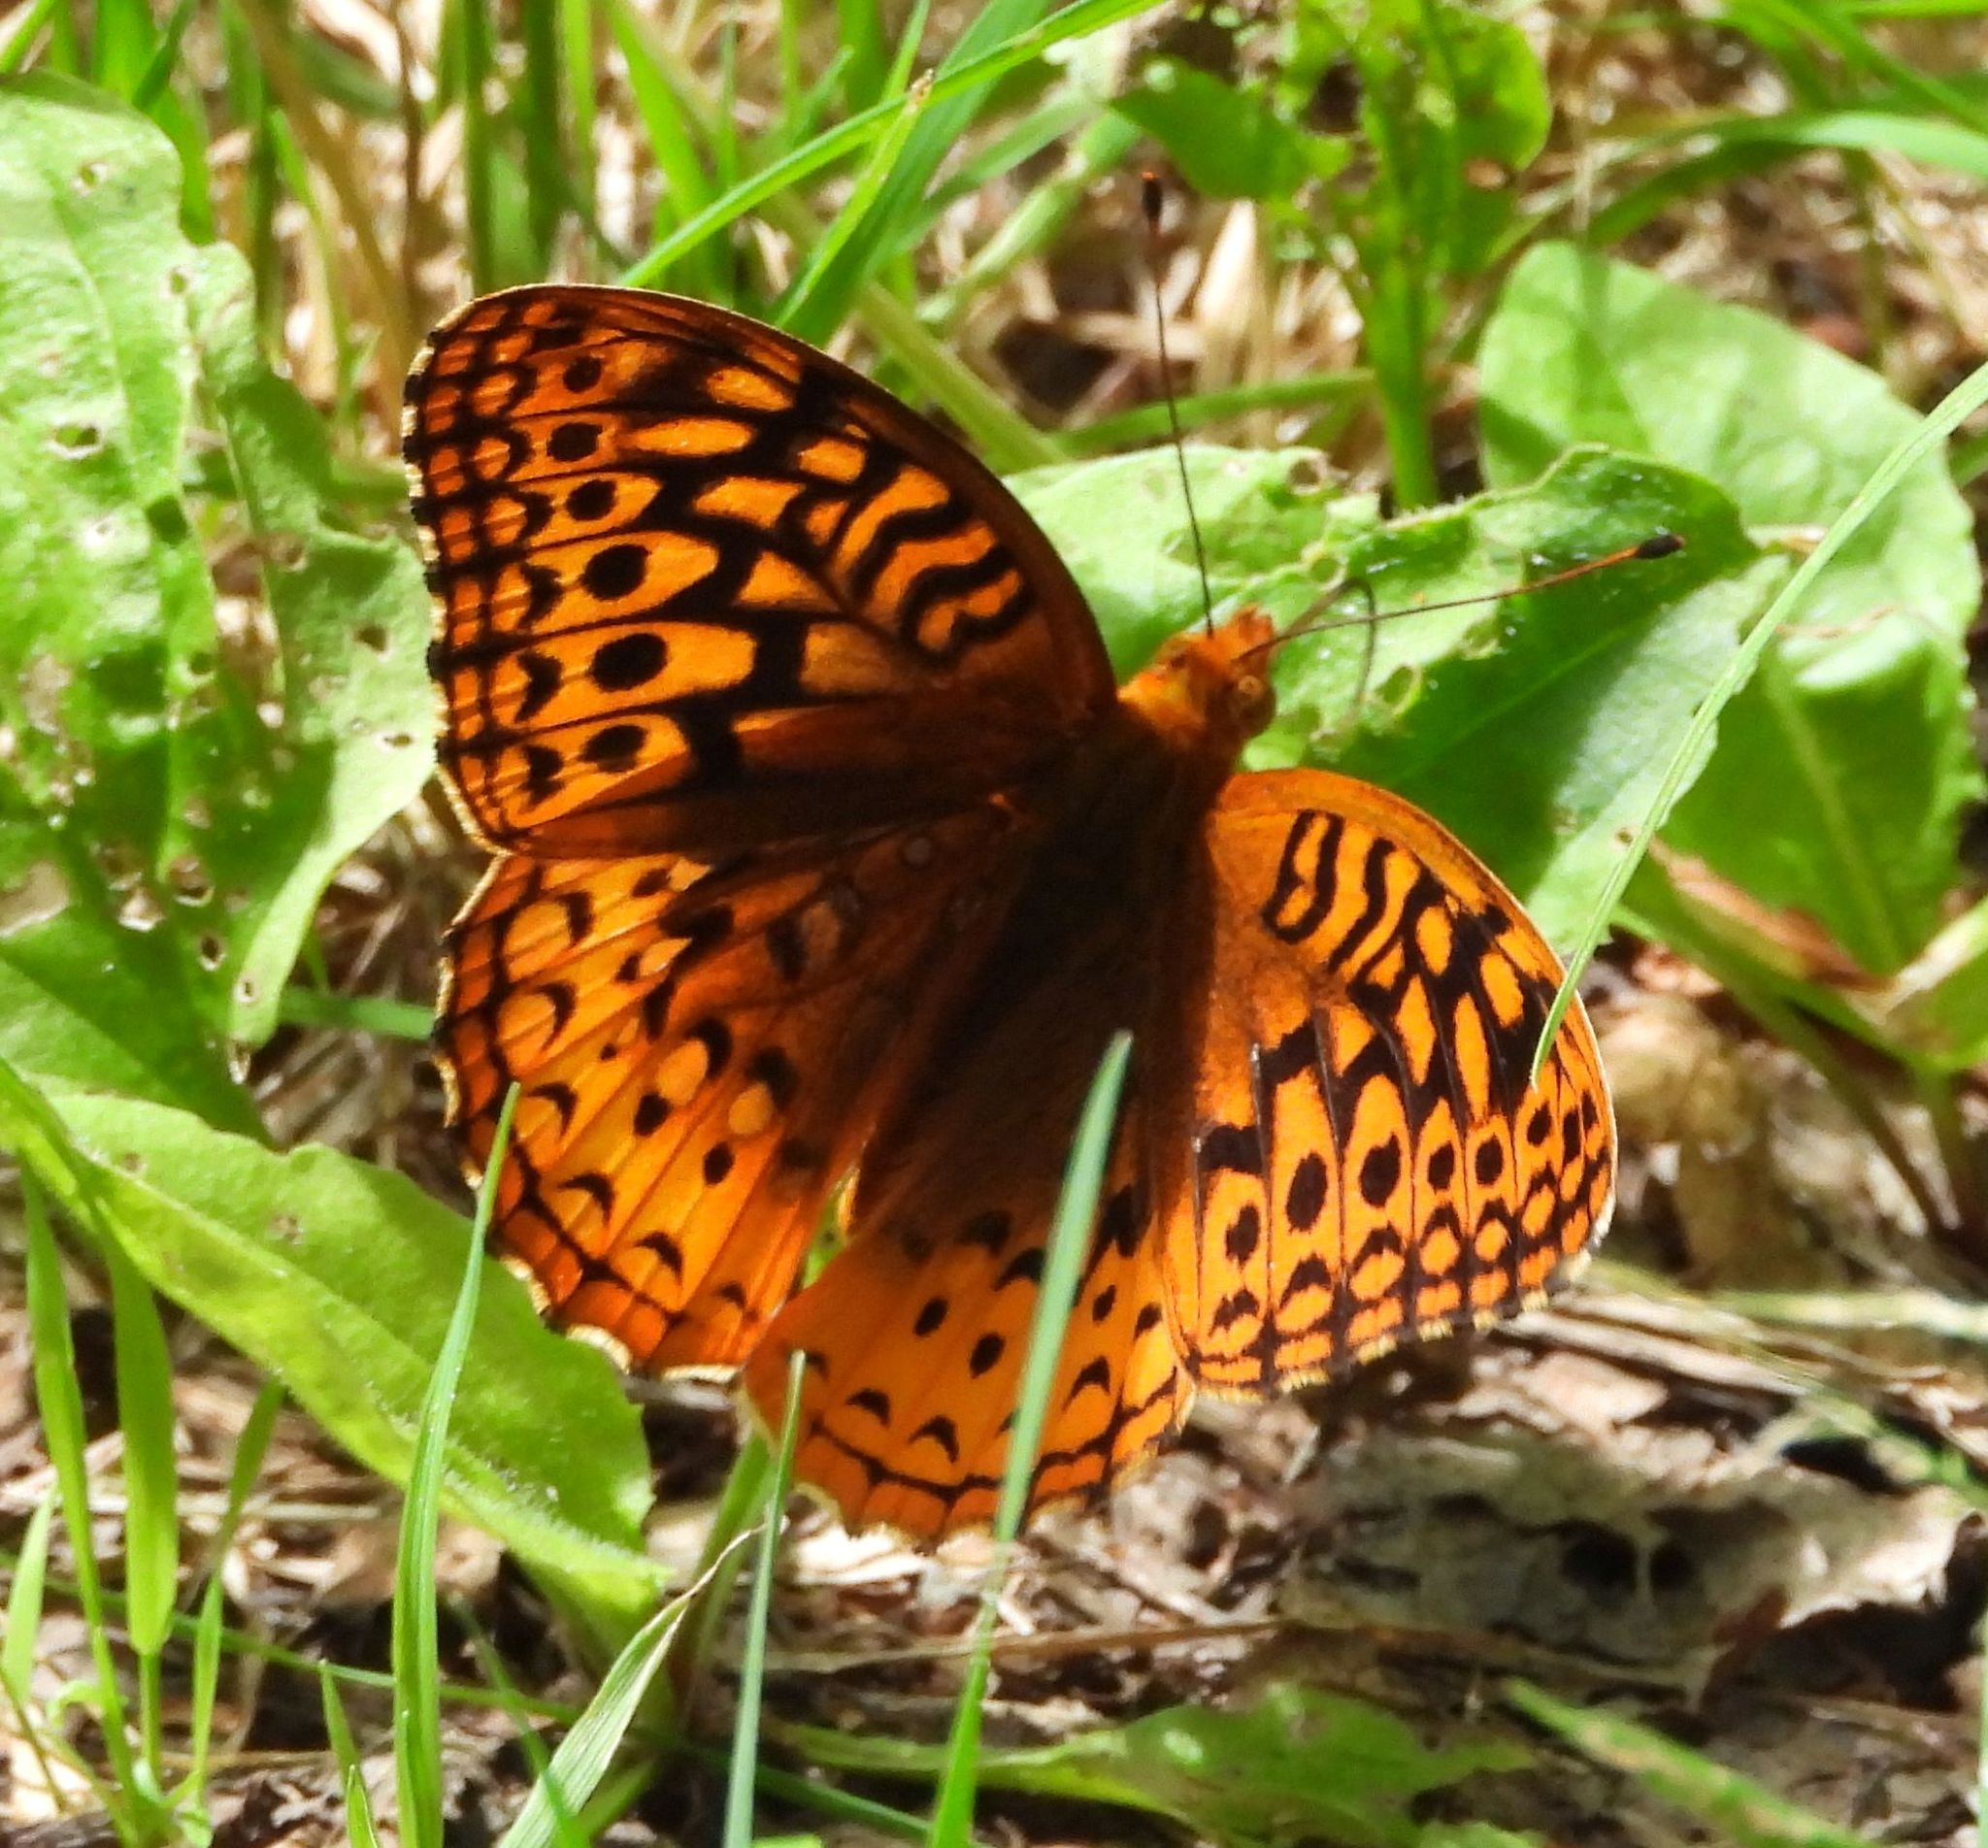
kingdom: Animalia
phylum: Arthropoda
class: Insecta
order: Lepidoptera
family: Nymphalidae
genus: Speyeria
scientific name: Speyeria cybele
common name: Great spangled fritillary
